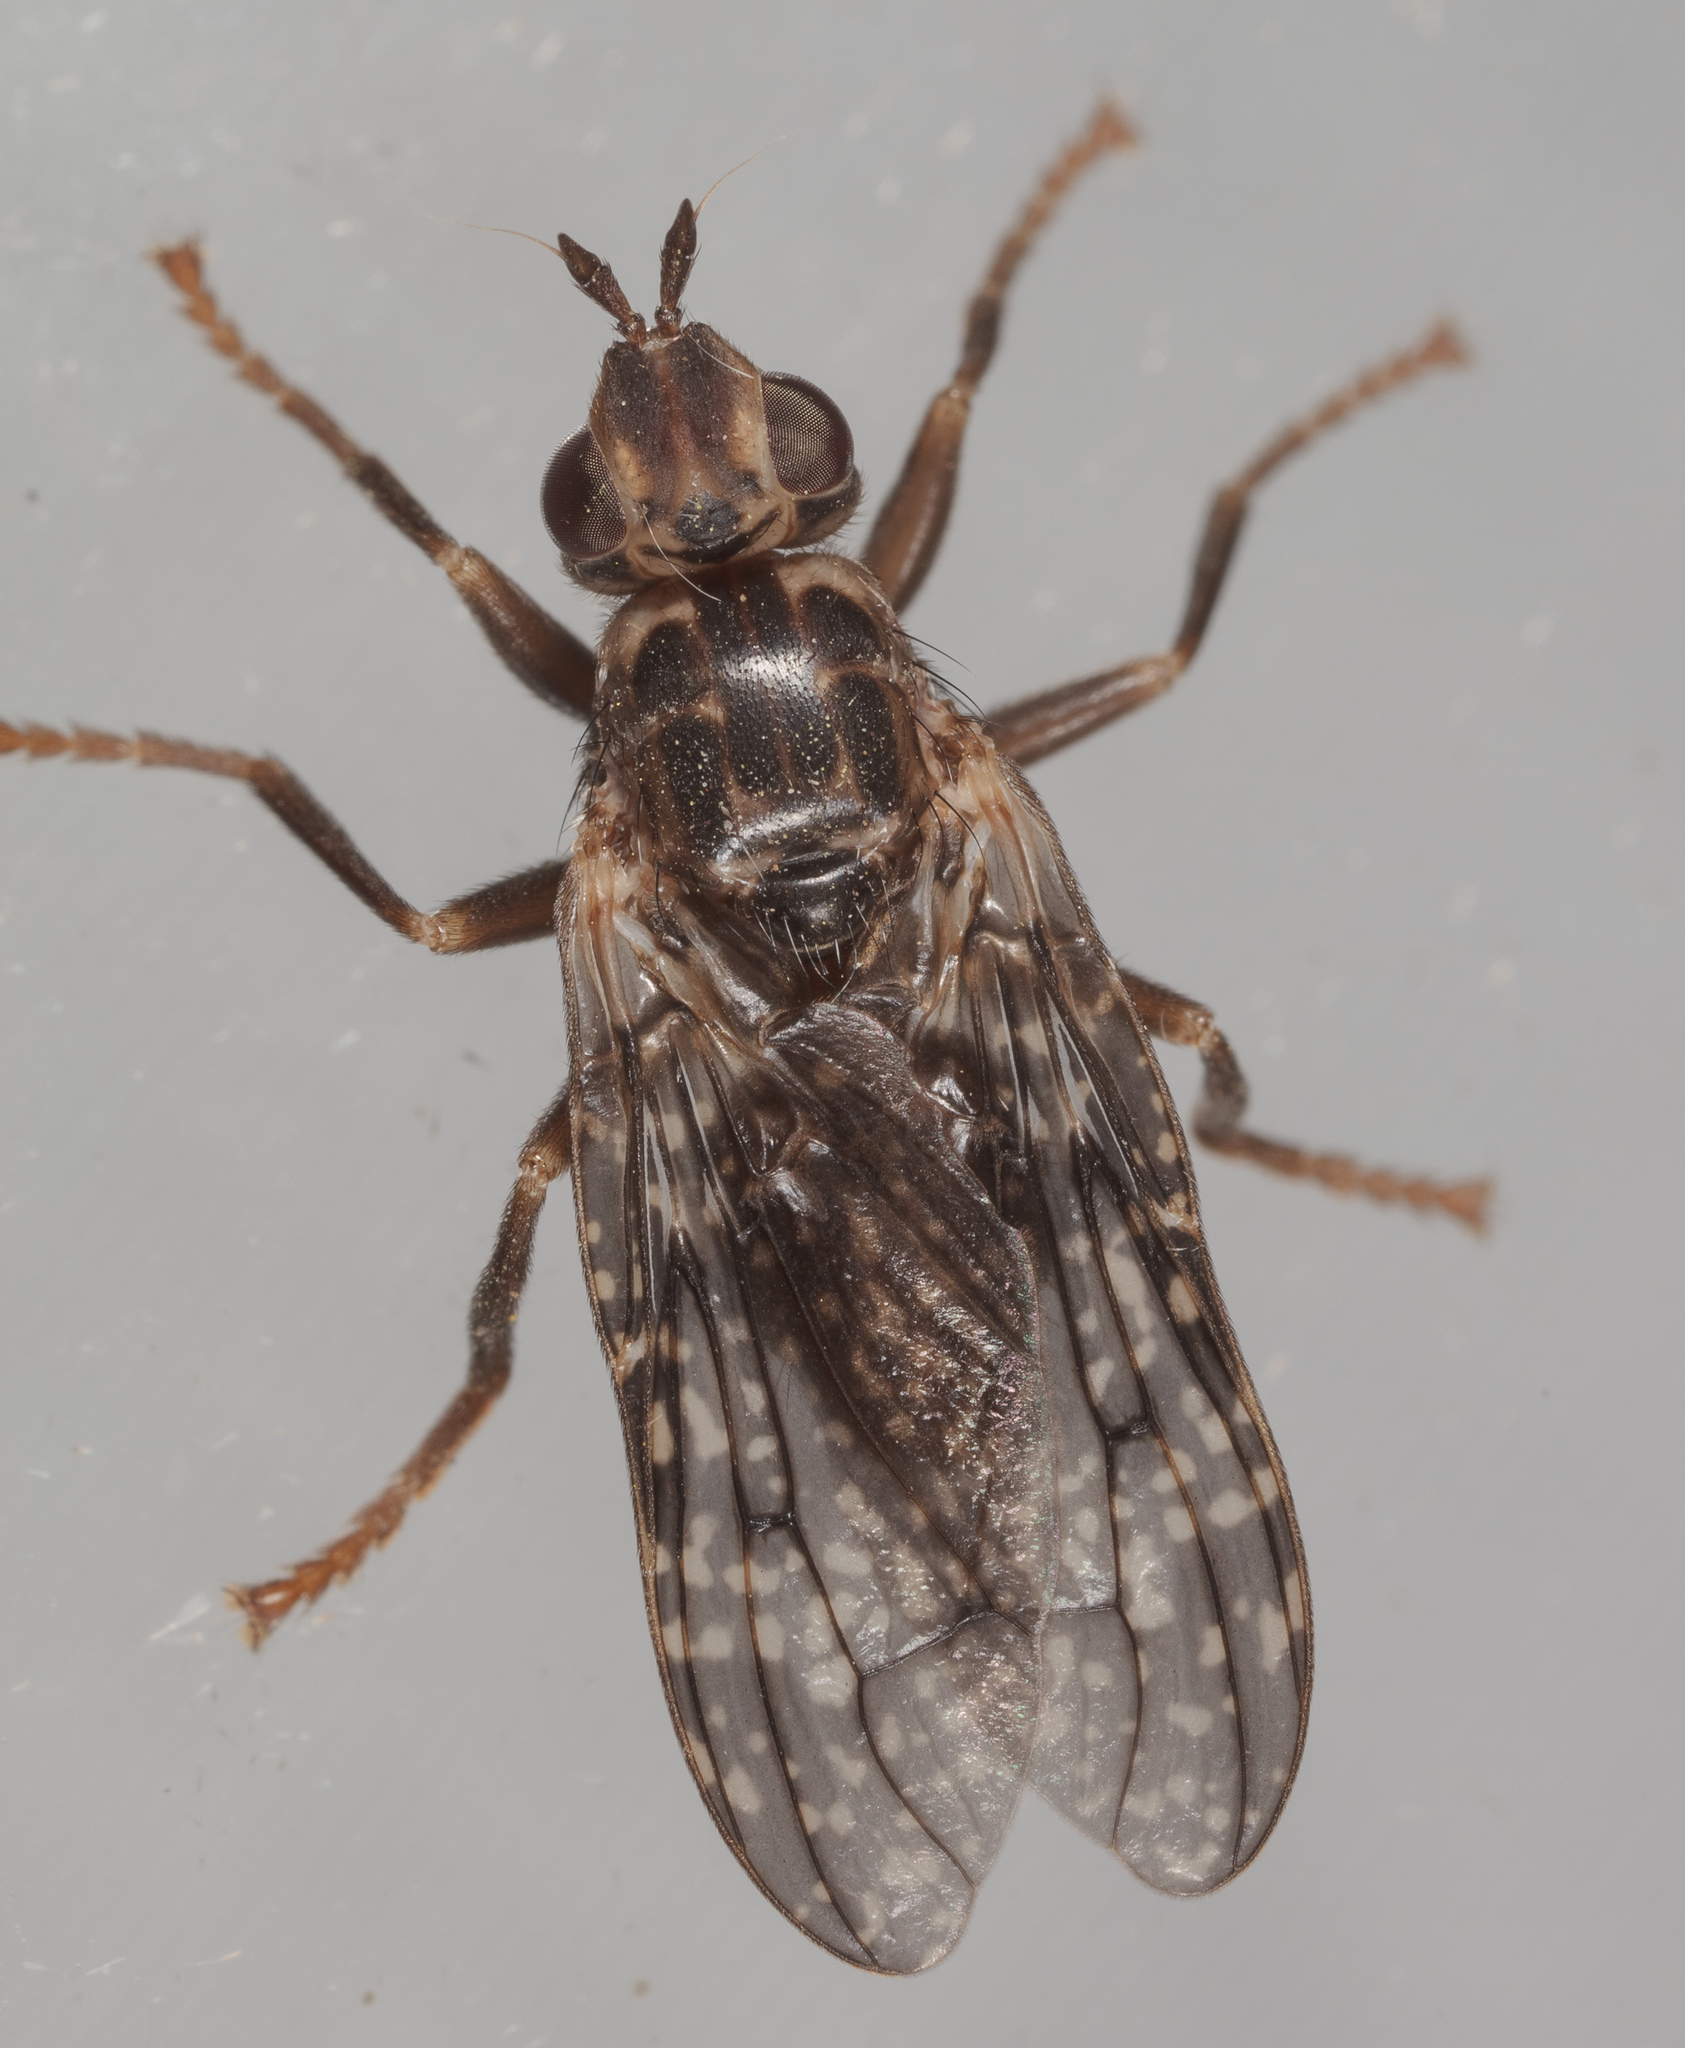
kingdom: Animalia
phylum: Arthropoda
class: Insecta
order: Diptera
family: Pyrgotidae
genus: Pyrgota
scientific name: Pyrgota valida
